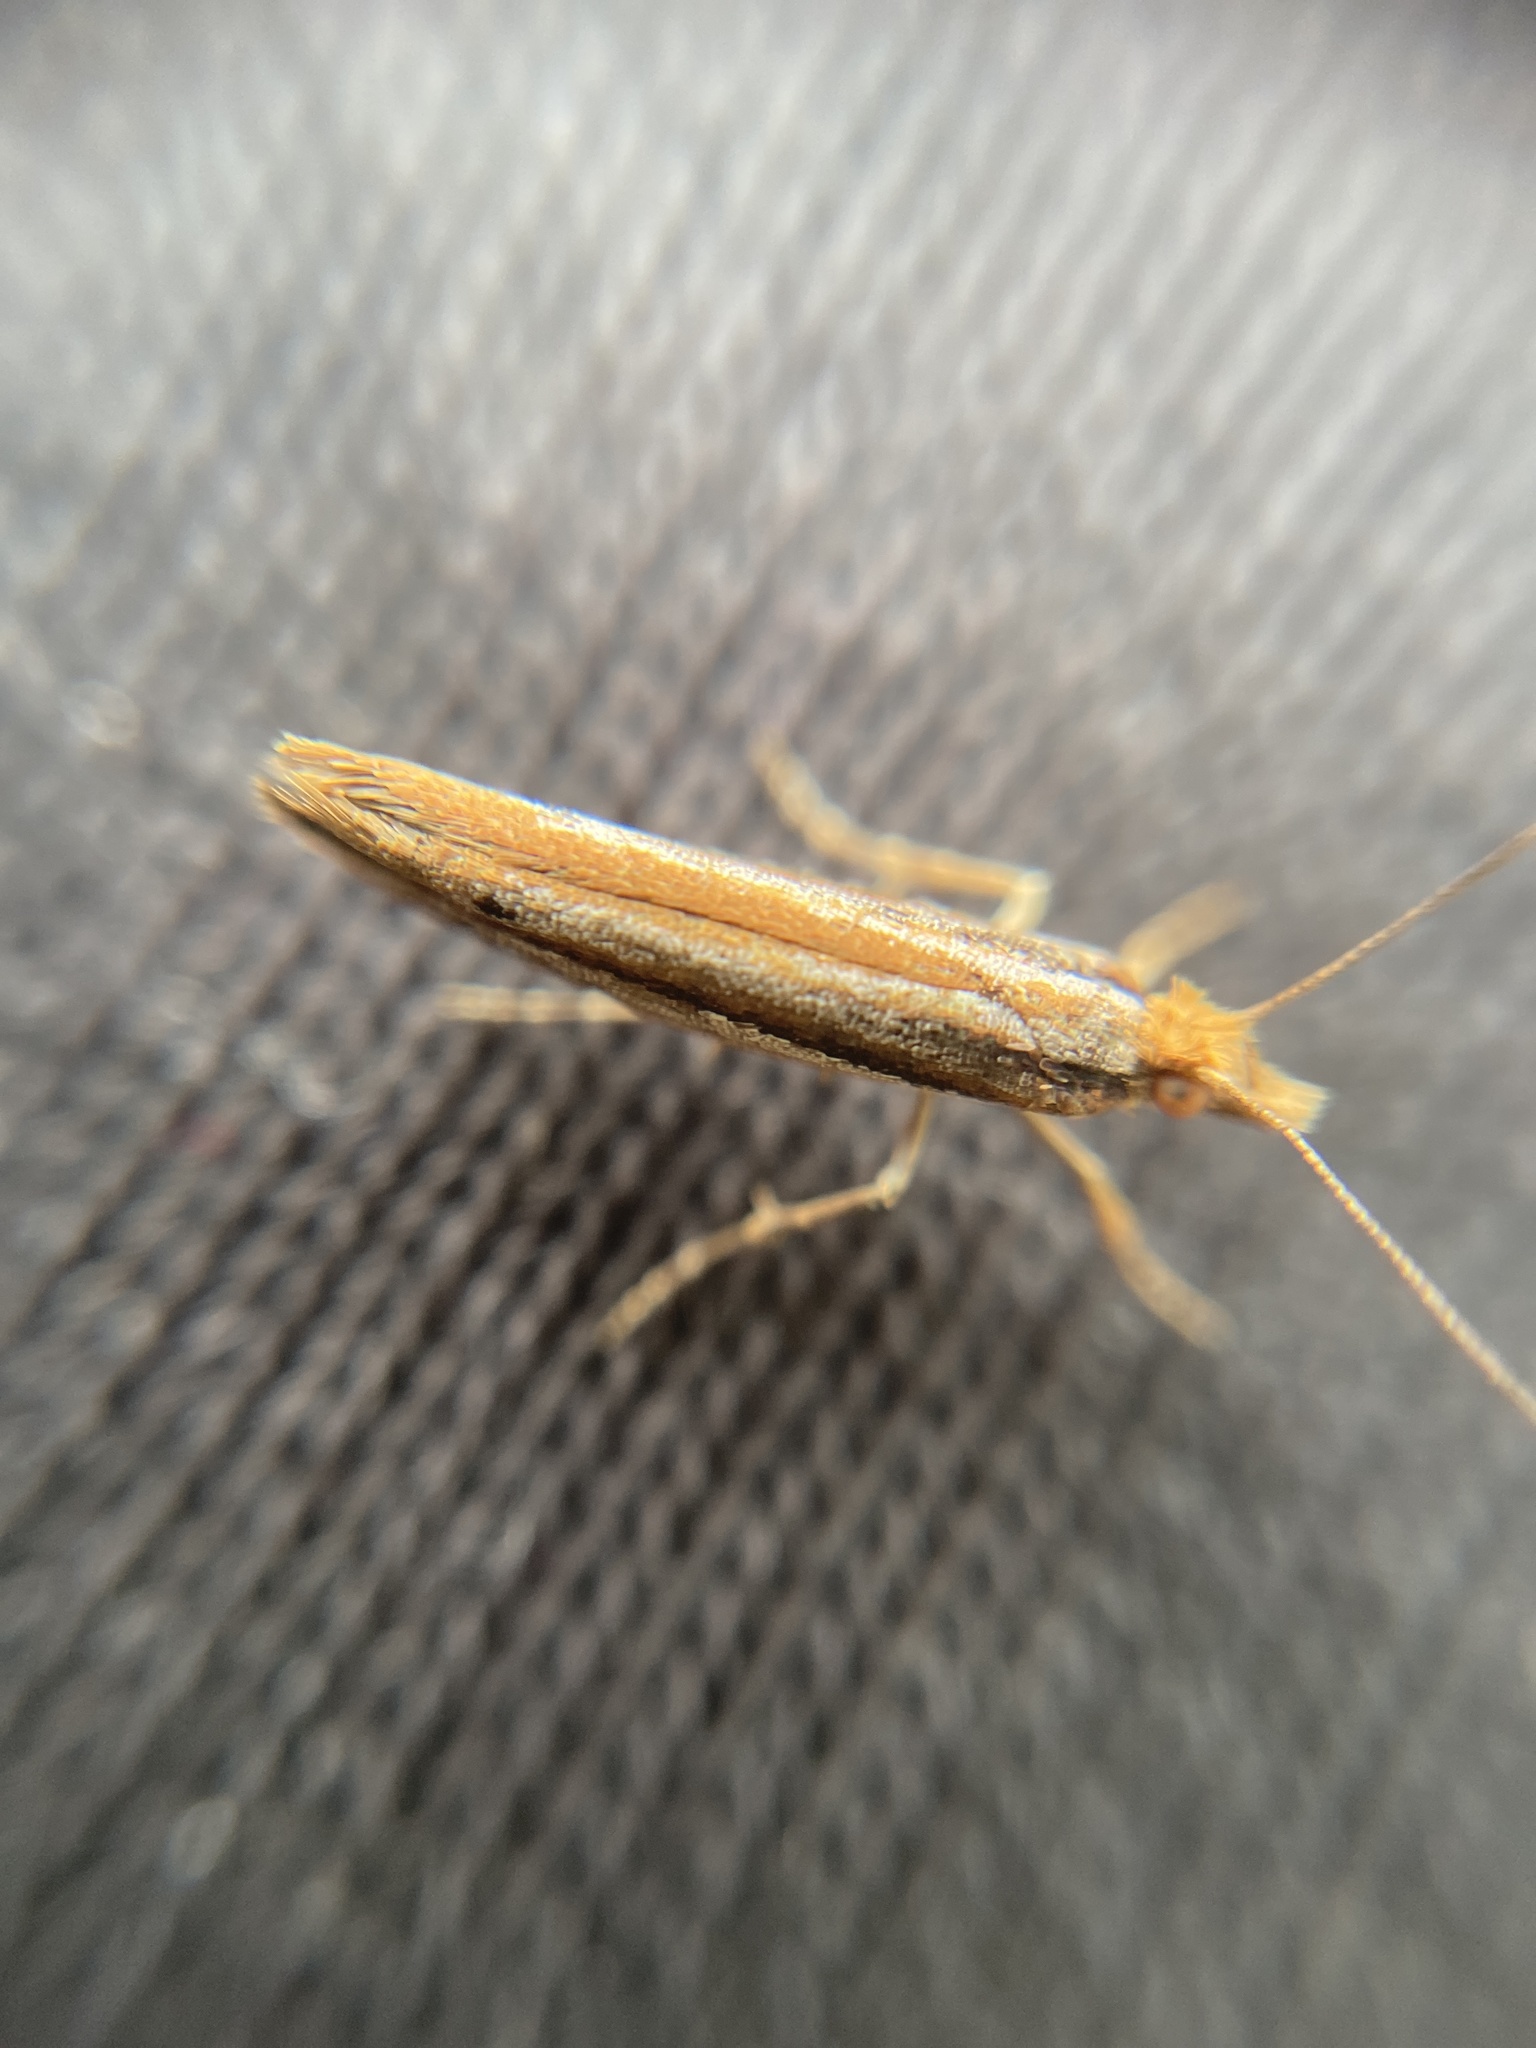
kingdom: Animalia
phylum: Arthropoda
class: Insecta
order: Lepidoptera
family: Plutellidae
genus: Ypsolophus
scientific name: Ypsolophus ustella
